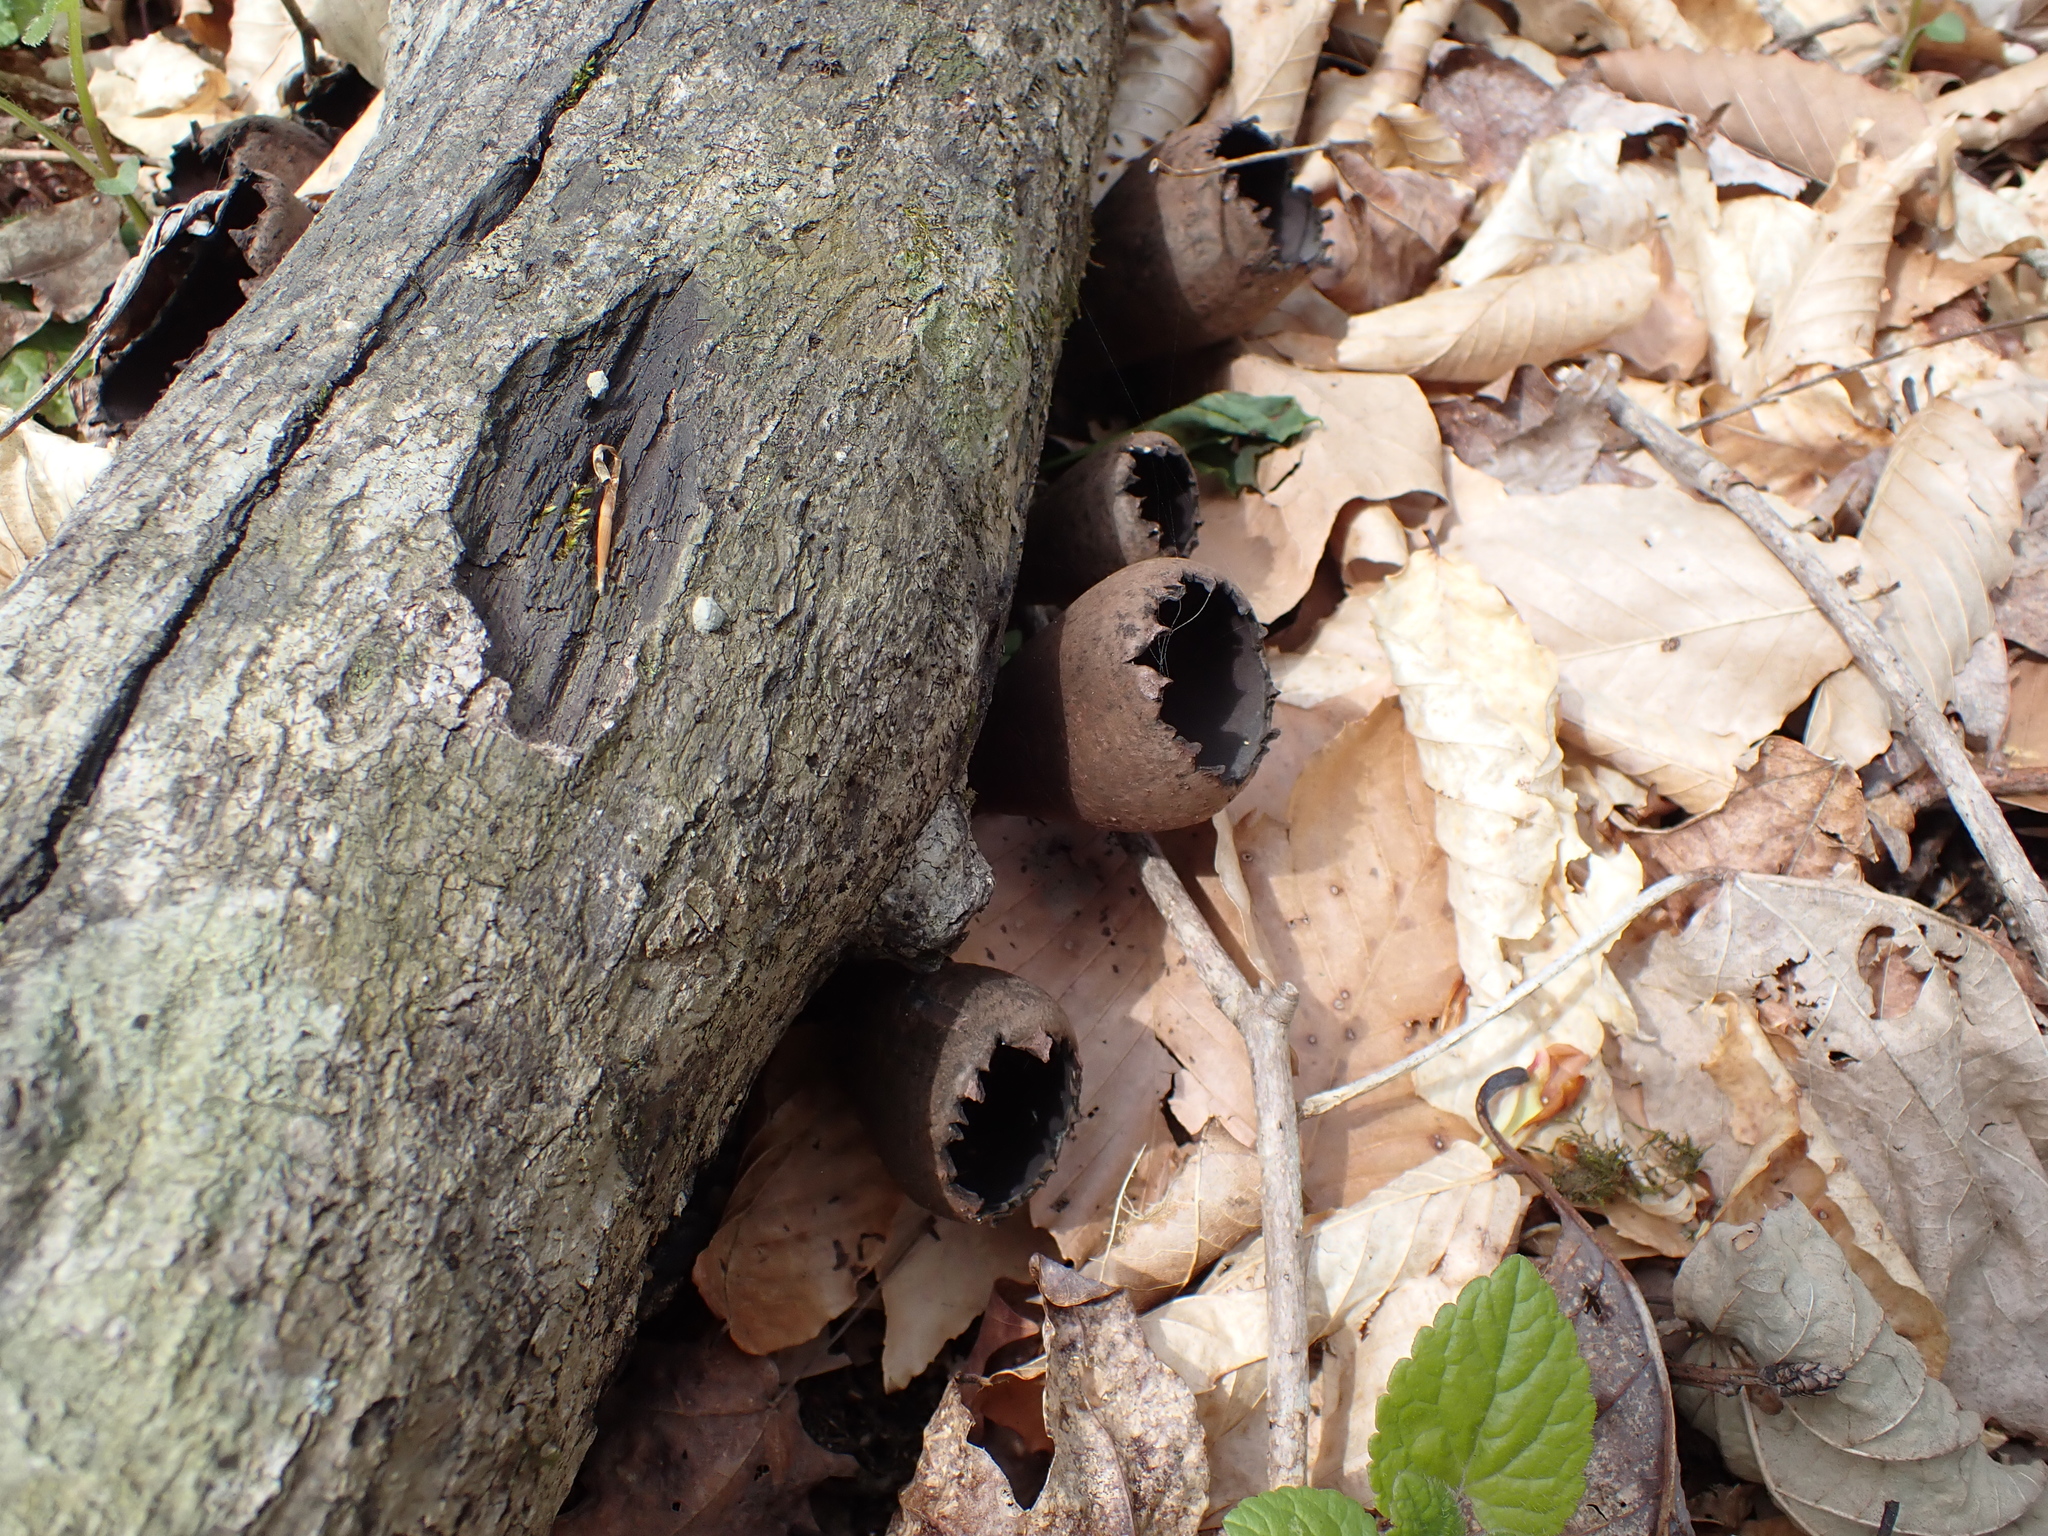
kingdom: Fungi
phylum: Ascomycota
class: Pezizomycetes
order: Pezizales
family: Sarcosomataceae
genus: Urnula
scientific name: Urnula craterium
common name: Devil's urn
